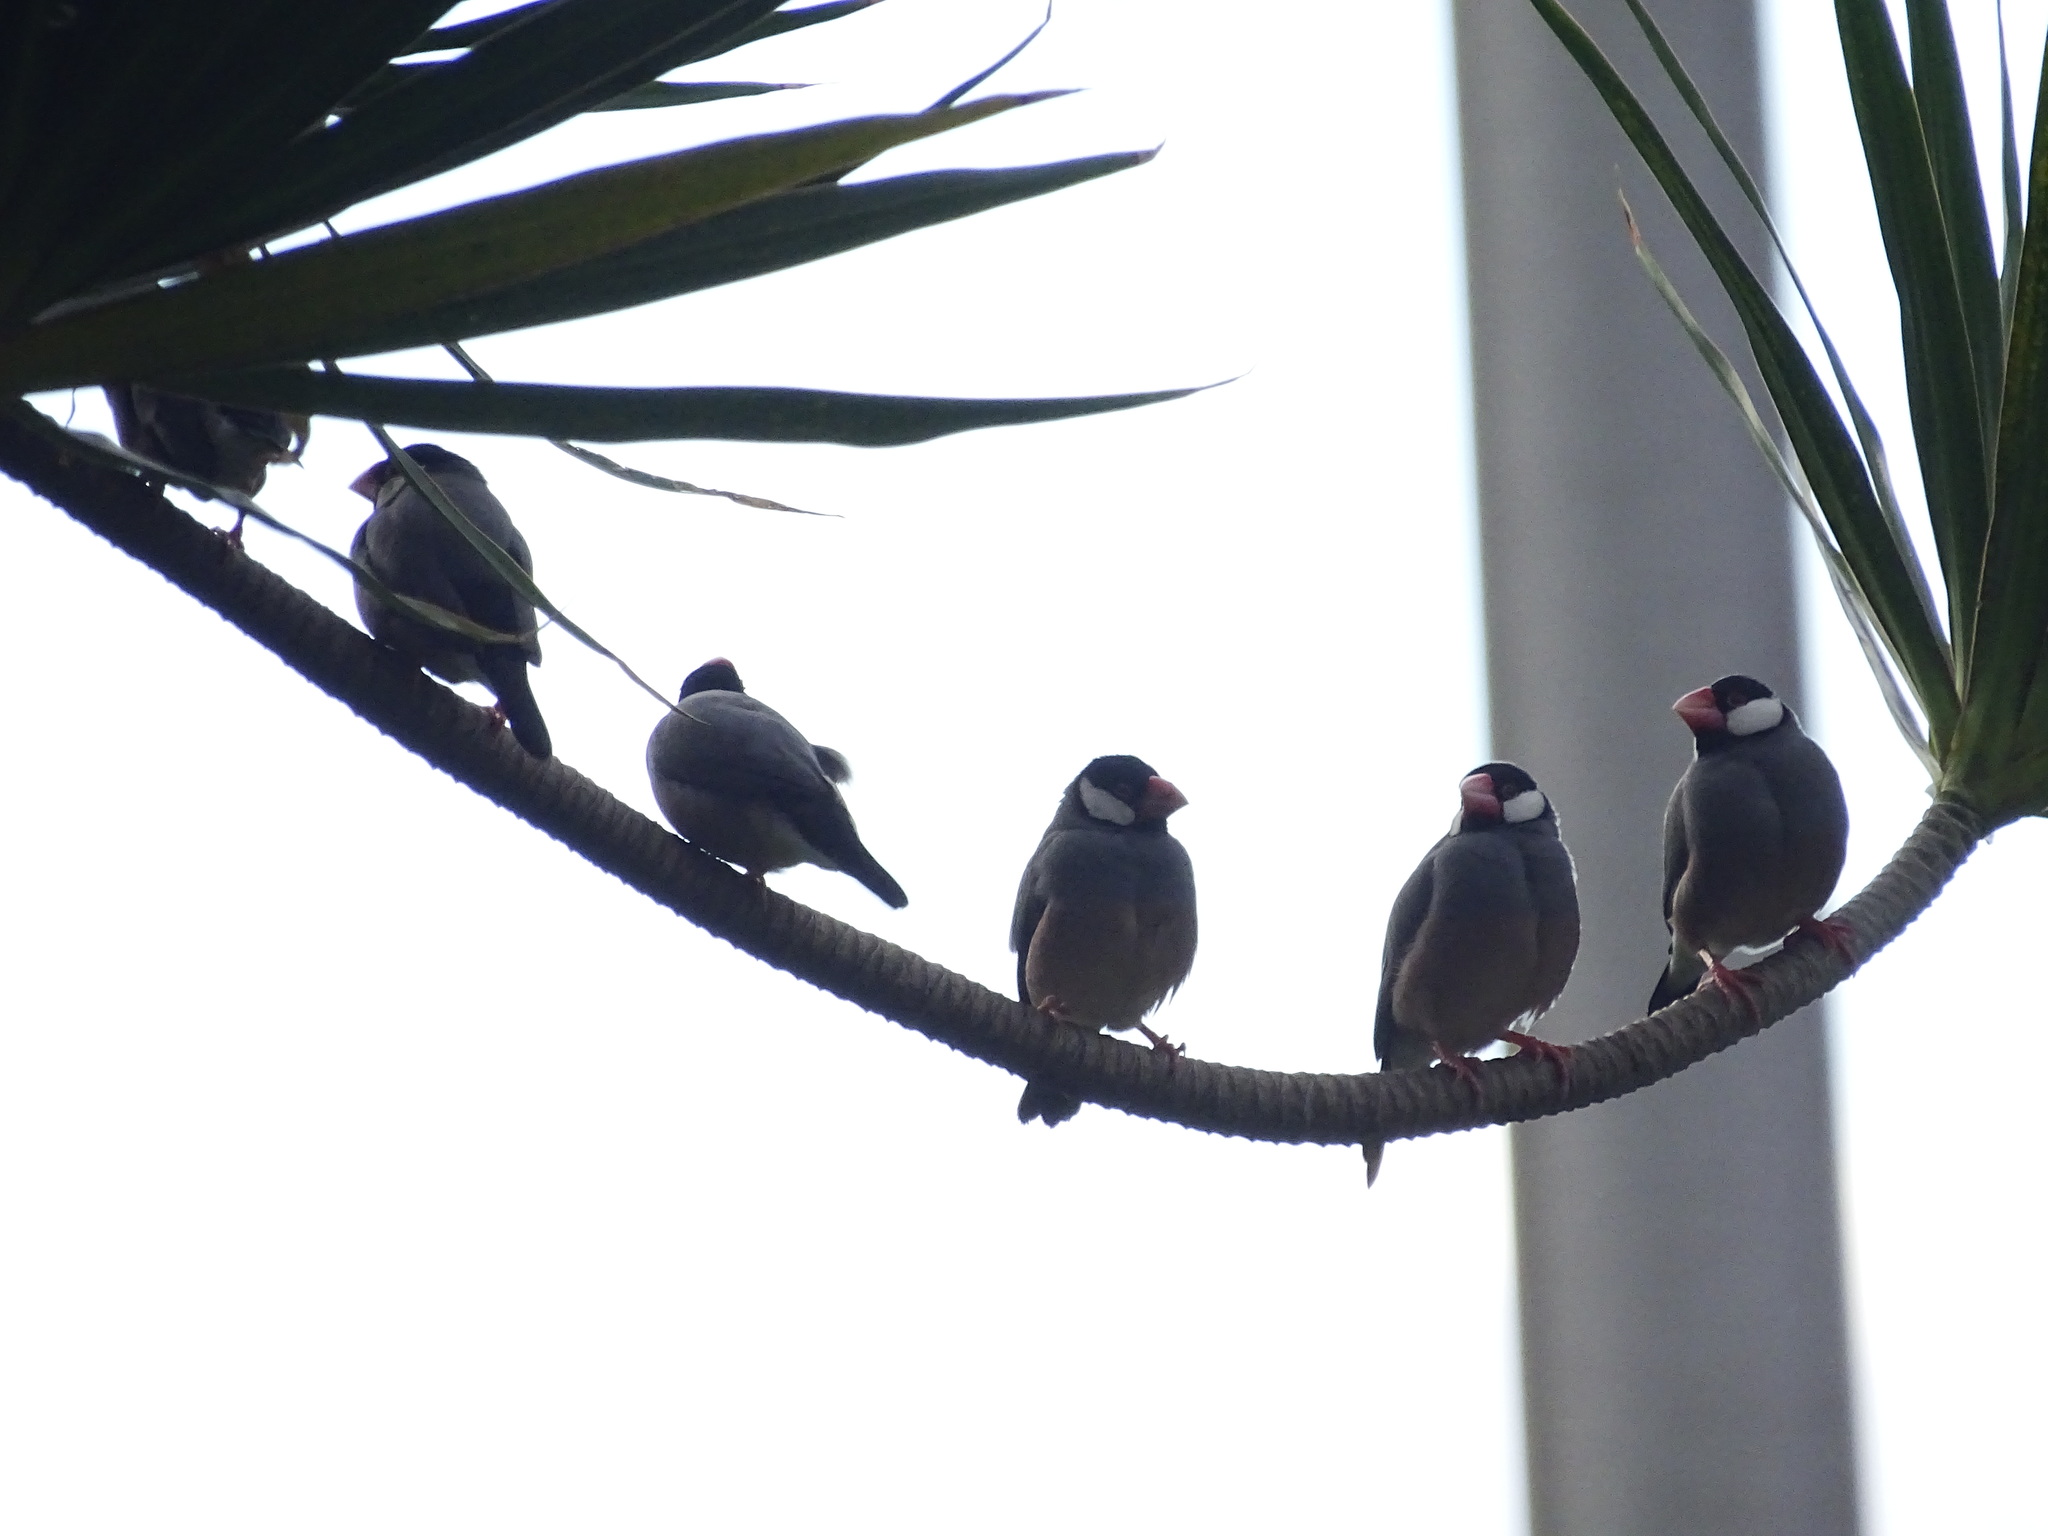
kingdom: Animalia
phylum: Chordata
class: Aves
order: Passeriformes
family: Estrildidae
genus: Lonchura
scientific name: Lonchura oryzivora
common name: Java sparrow
